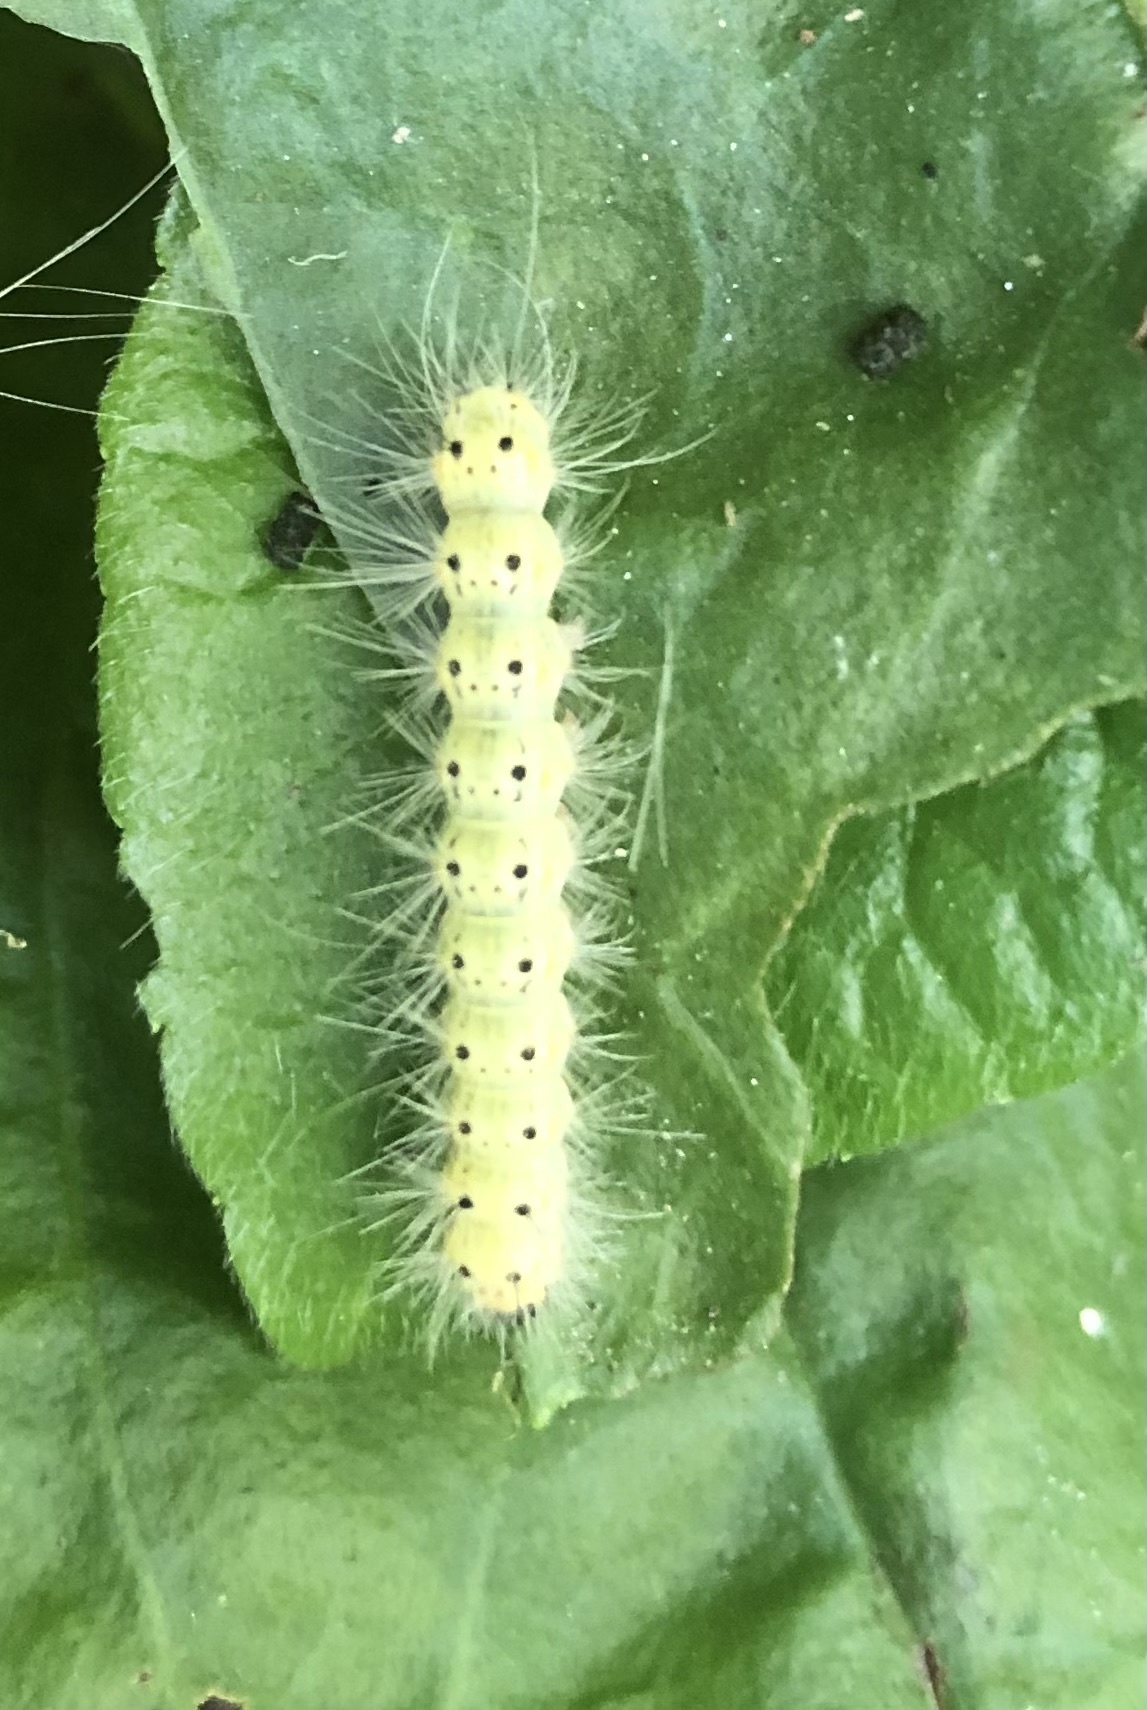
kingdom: Animalia
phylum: Arthropoda
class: Insecta
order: Lepidoptera
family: Erebidae
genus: Hyphantria
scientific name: Hyphantria cunea
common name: American white moth
